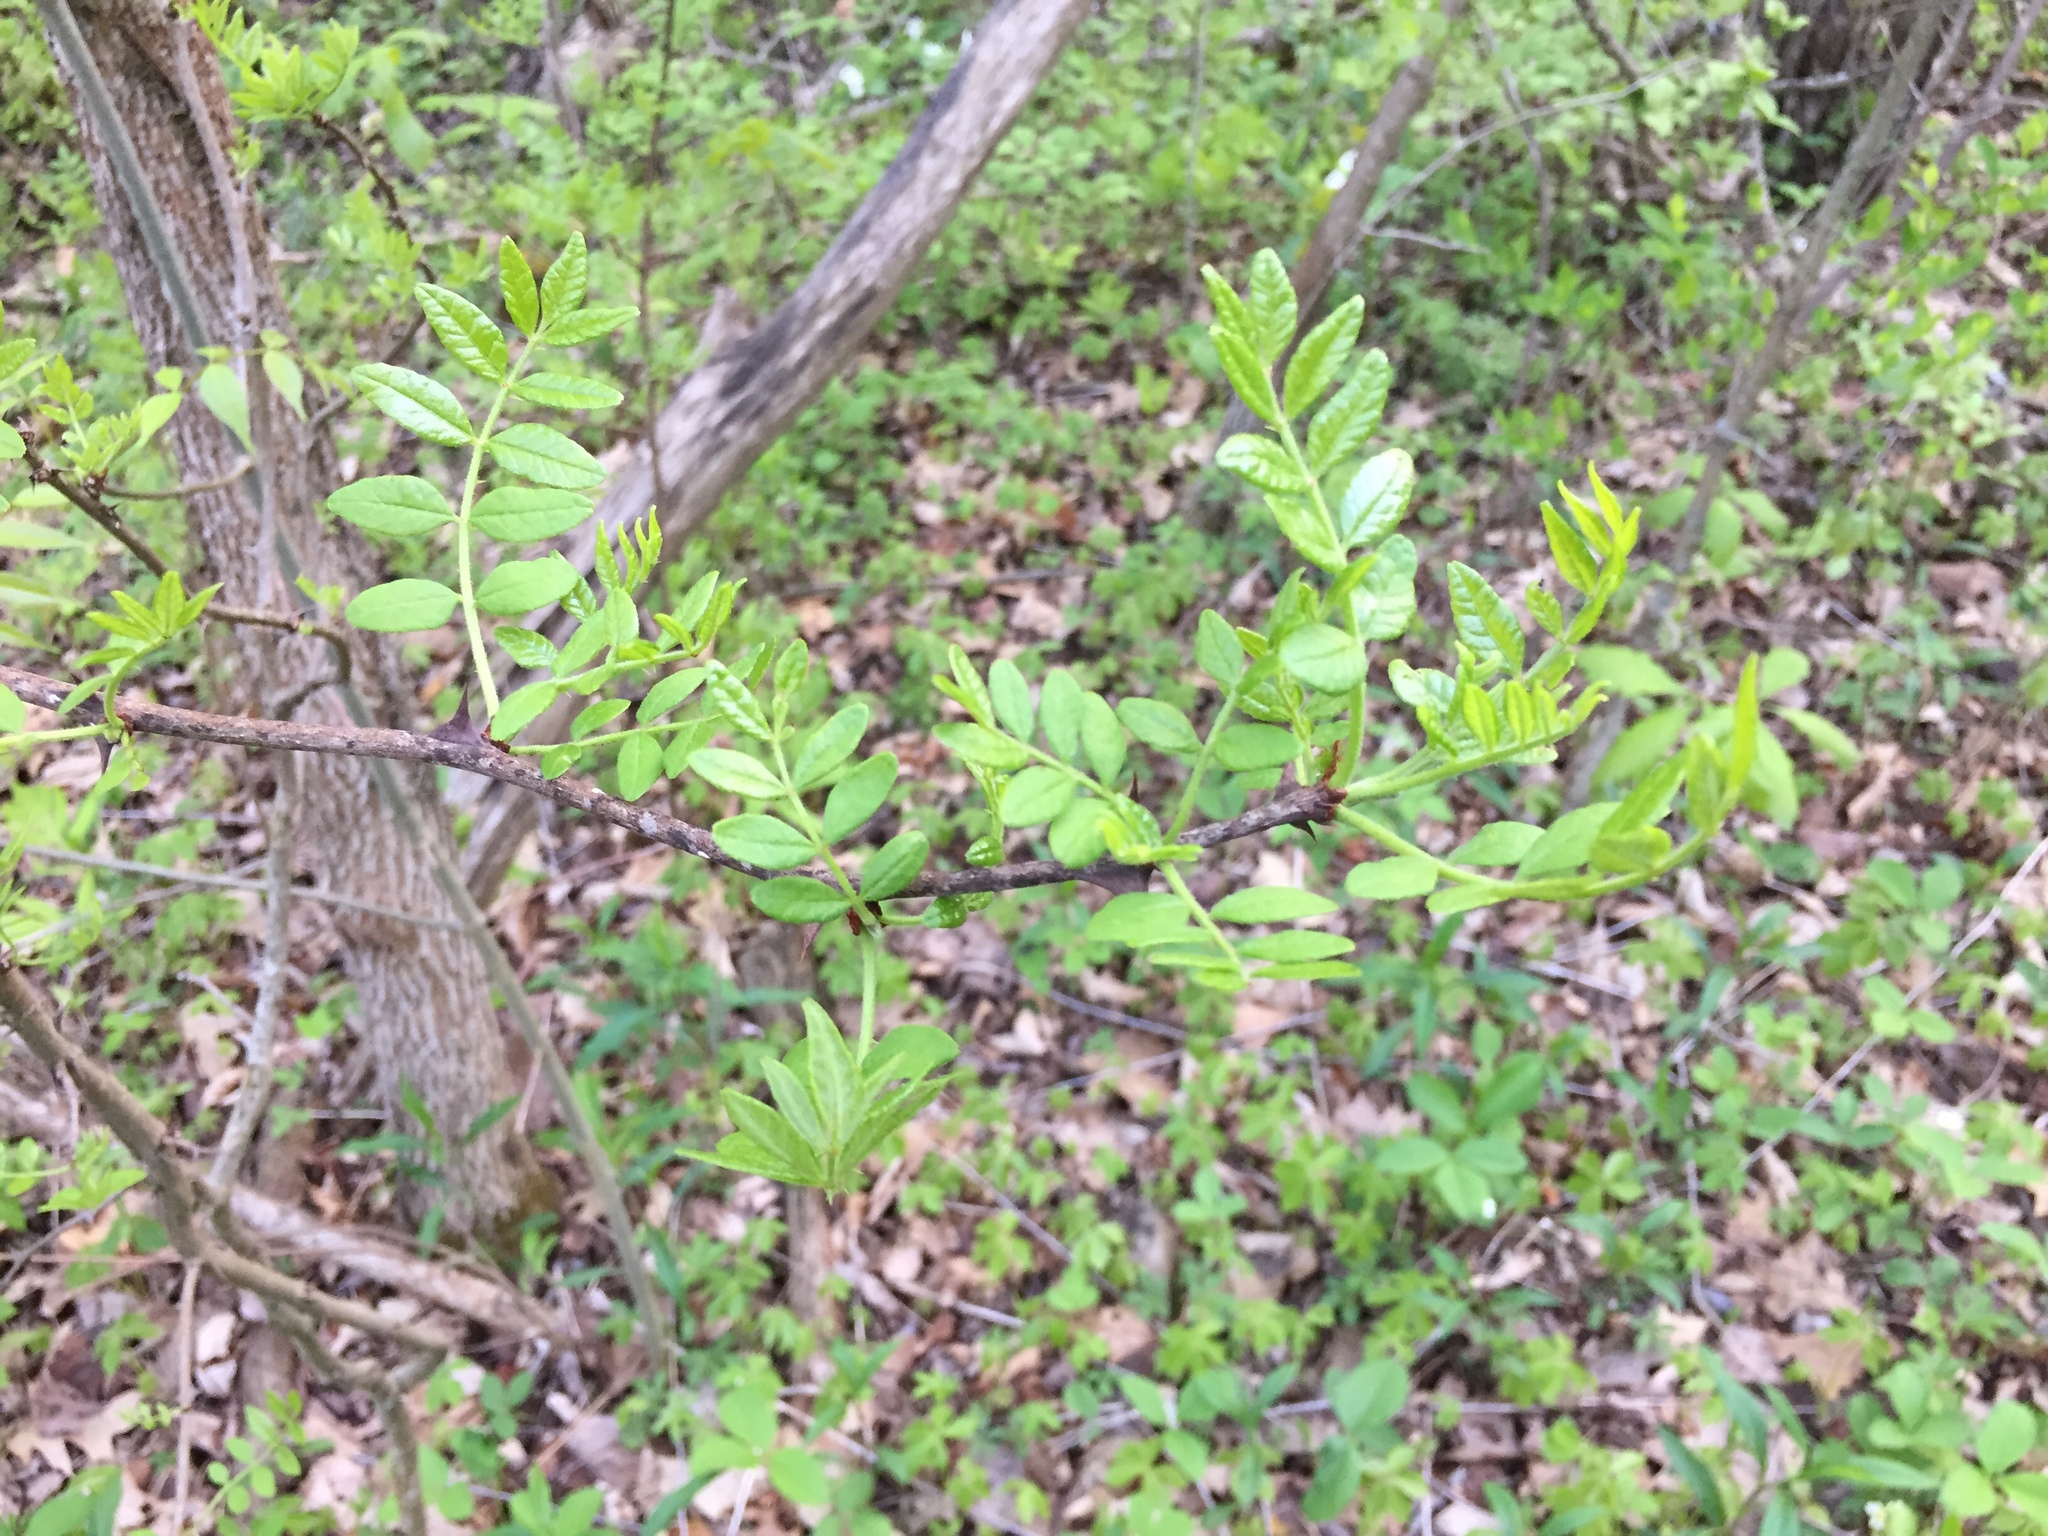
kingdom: Plantae
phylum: Tracheophyta
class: Magnoliopsida
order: Sapindales
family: Rutaceae
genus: Zanthoxylum
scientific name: Zanthoxylum americanum
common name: Northern prickly-ash
